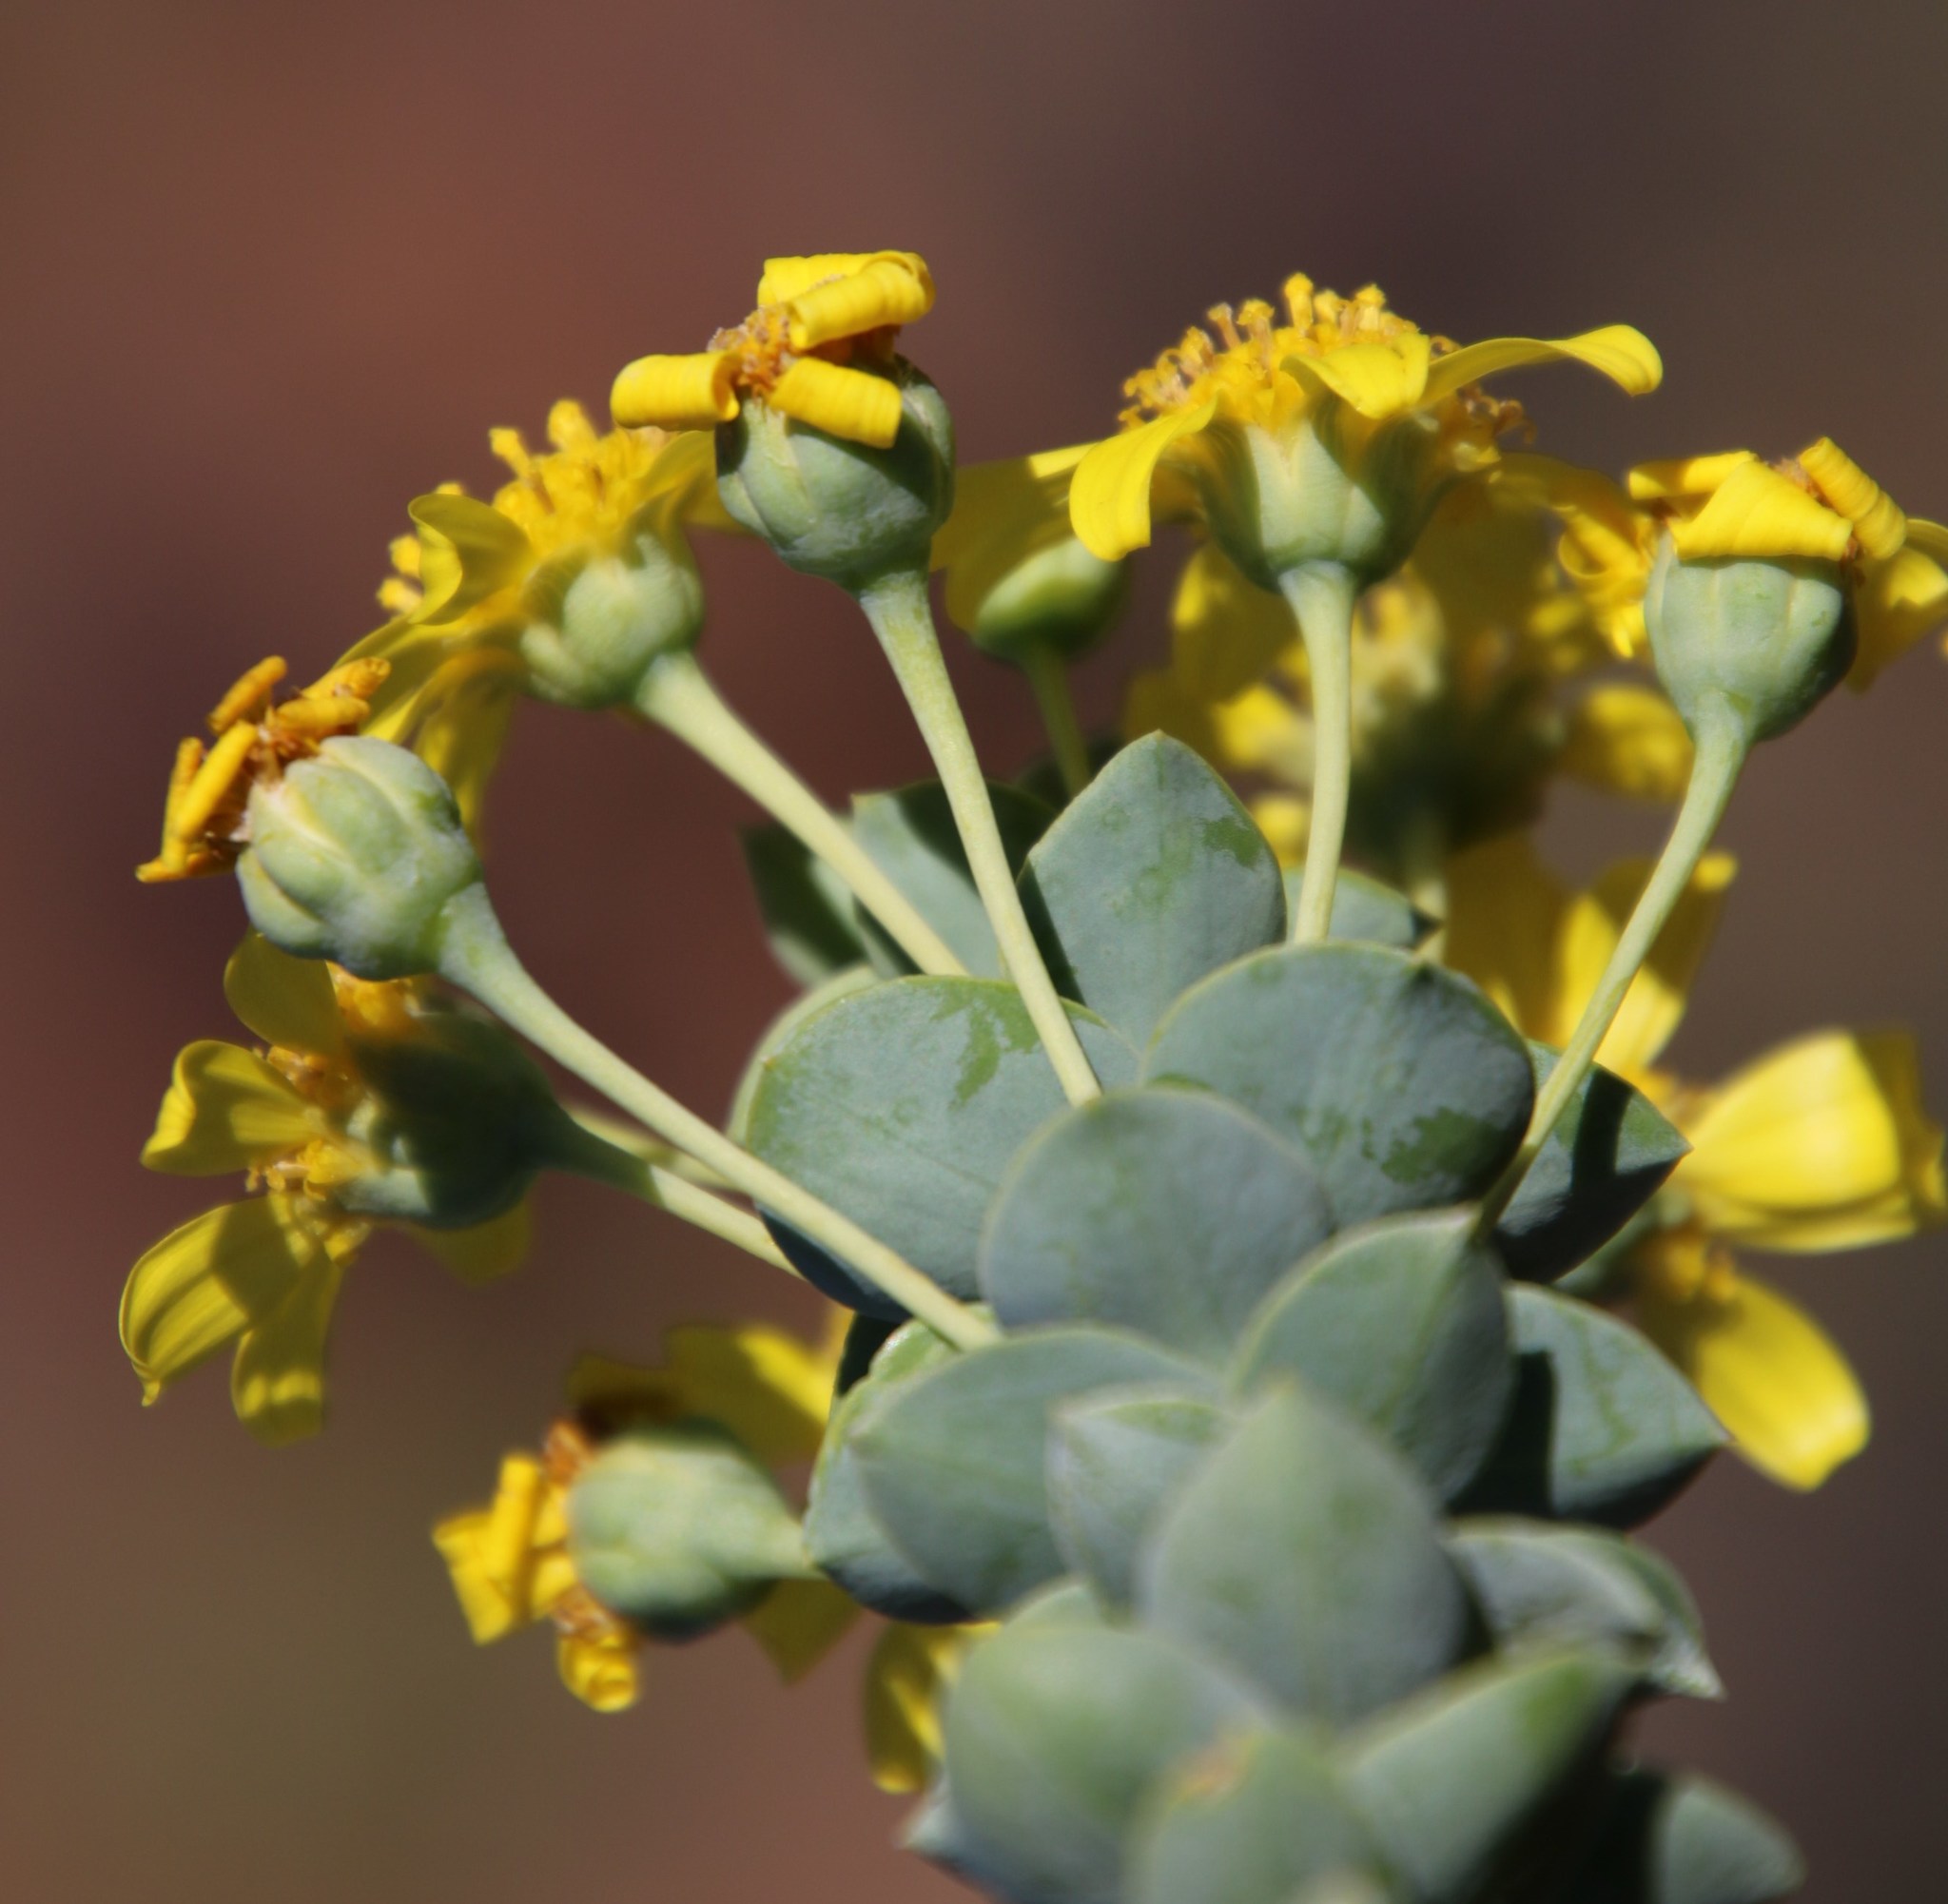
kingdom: Plantae
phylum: Tracheophyta
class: Magnoliopsida
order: Asterales
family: Asteraceae
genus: Euryops
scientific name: Euryops lateriflorus
